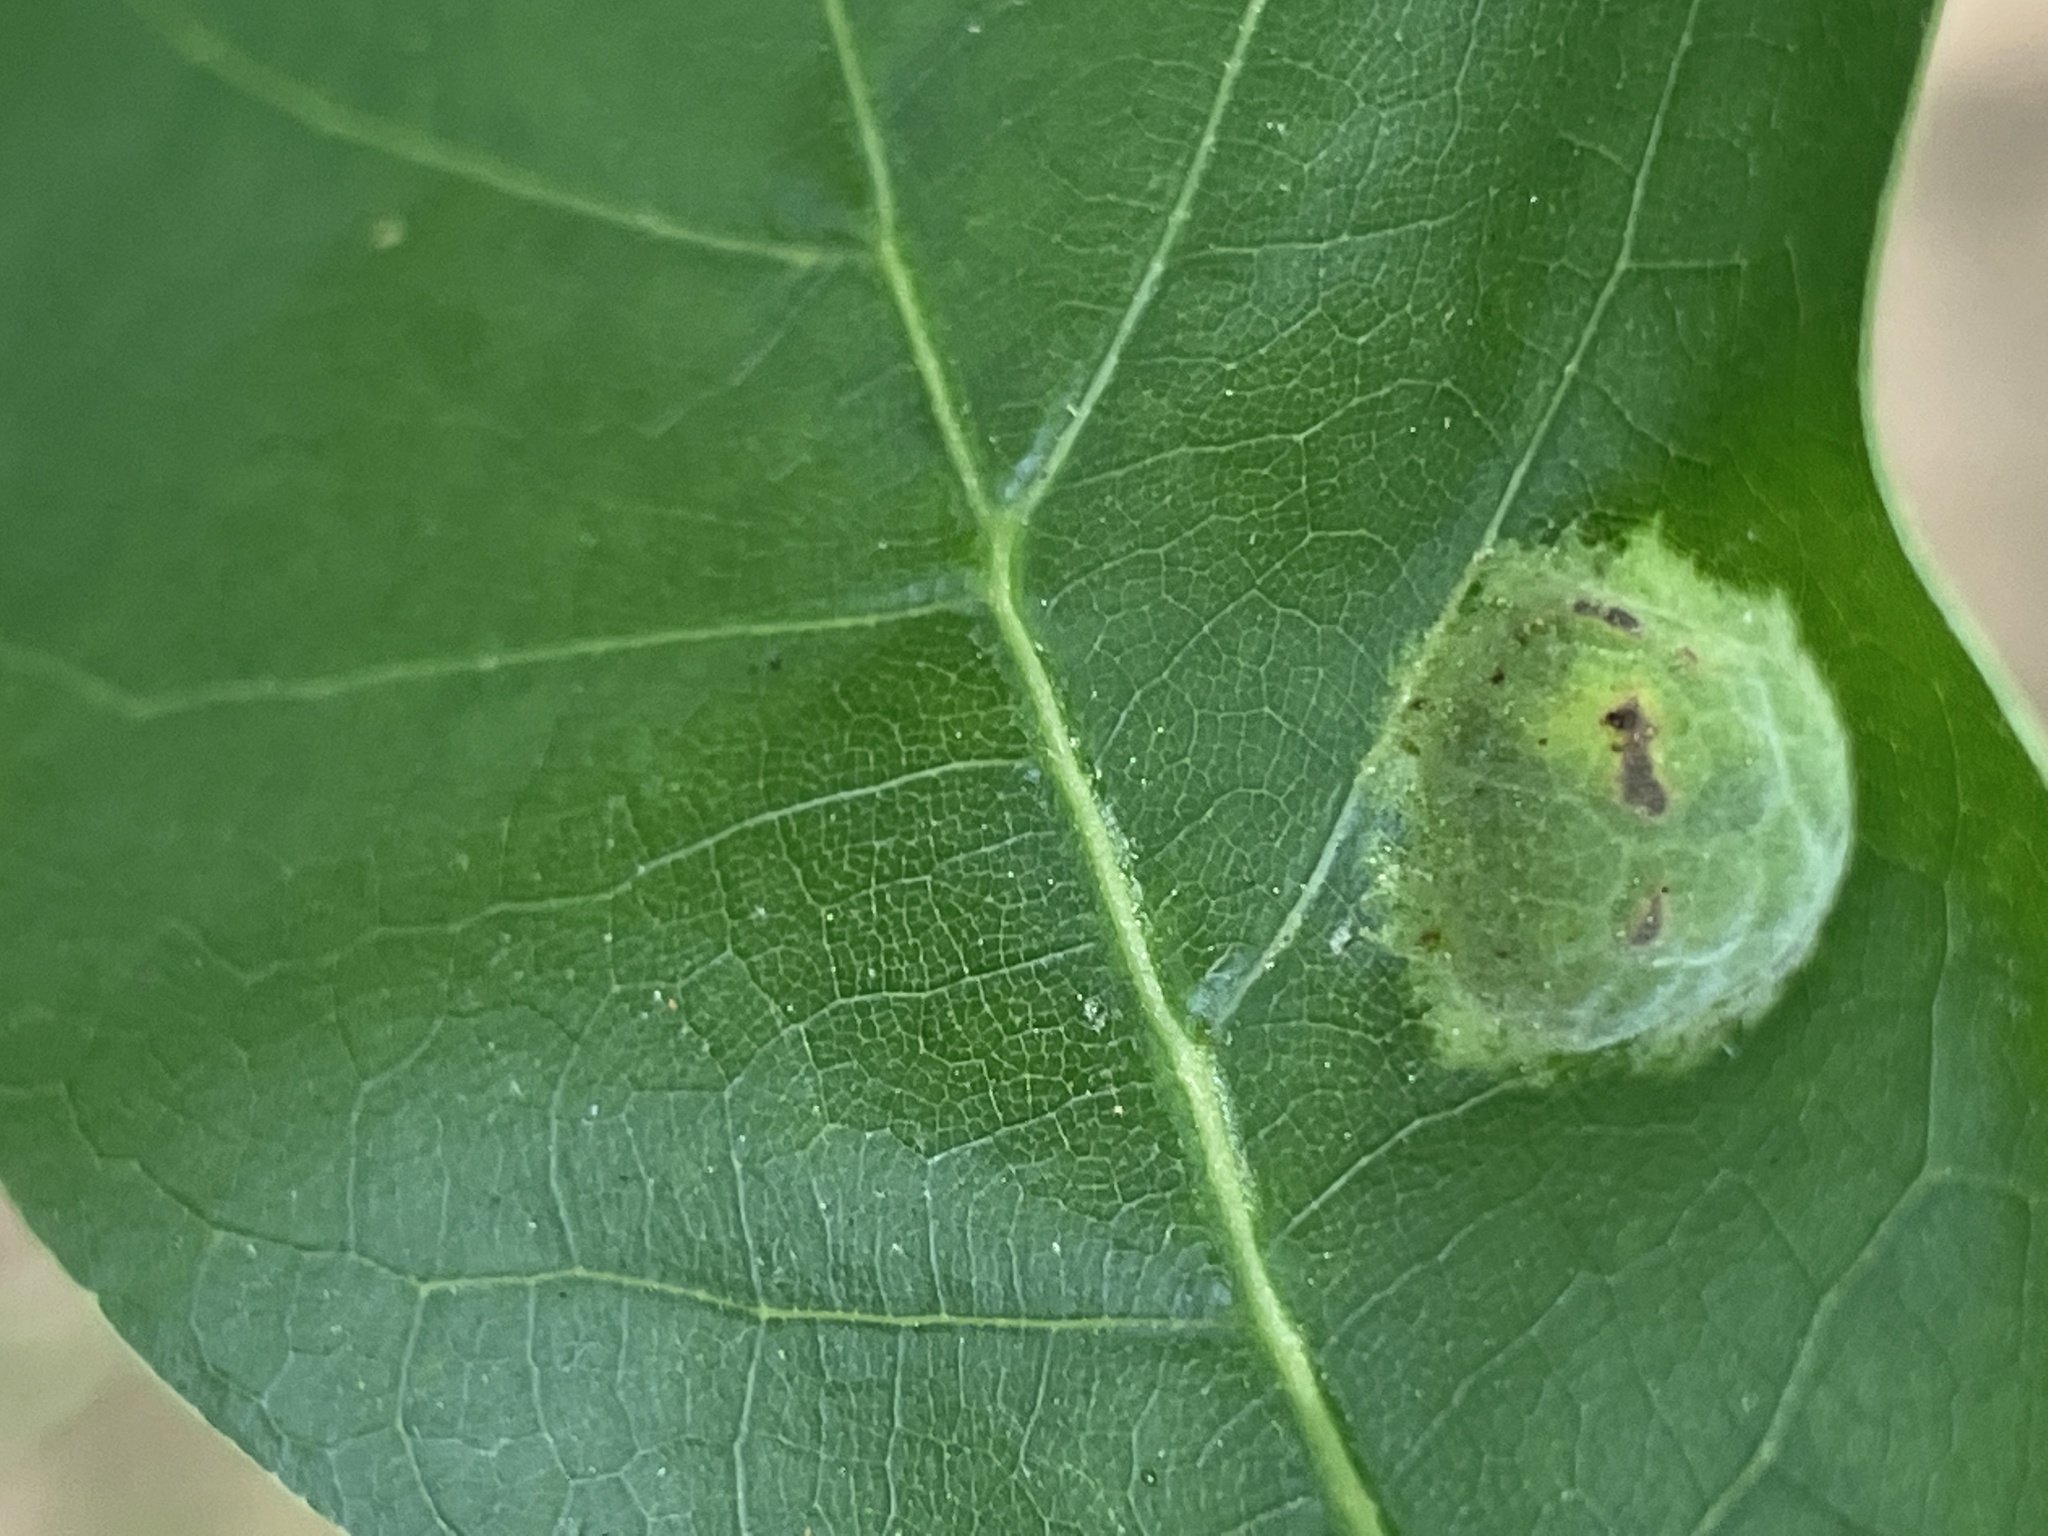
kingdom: Fungi
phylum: Ascomycota
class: Taphrinomycetes
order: Taphrinales
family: Taphrinaceae
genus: Taphrina
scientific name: Taphrina caerulescens
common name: Oak leaf blister
